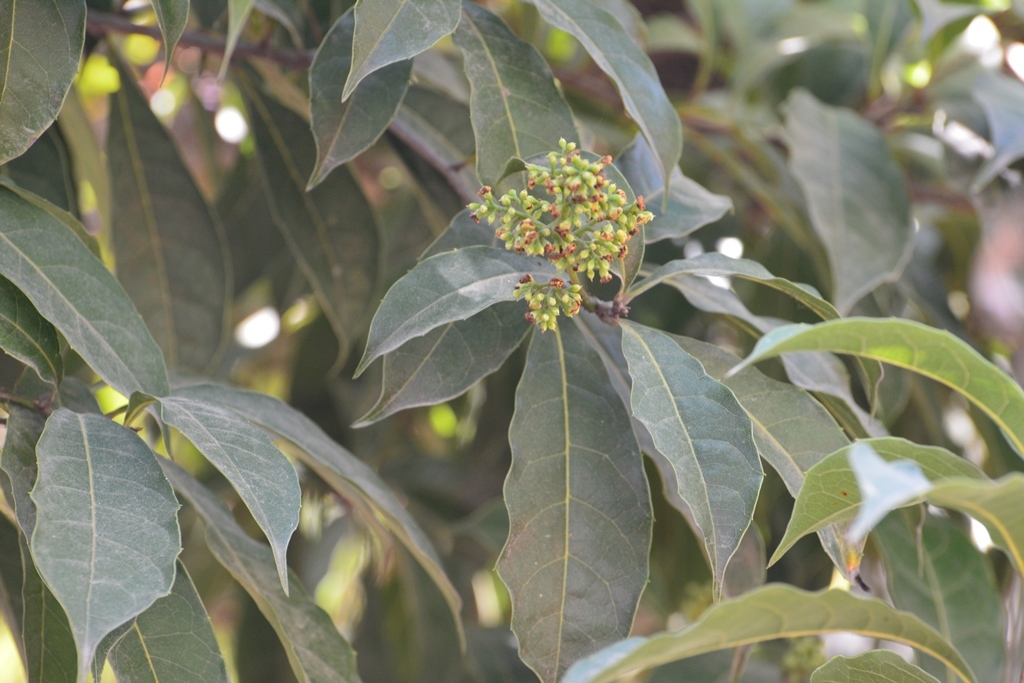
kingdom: Plantae
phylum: Tracheophyta
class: Magnoliopsida
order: Proteales
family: Sabiaceae
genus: Meliosma
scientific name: Meliosma dentata
